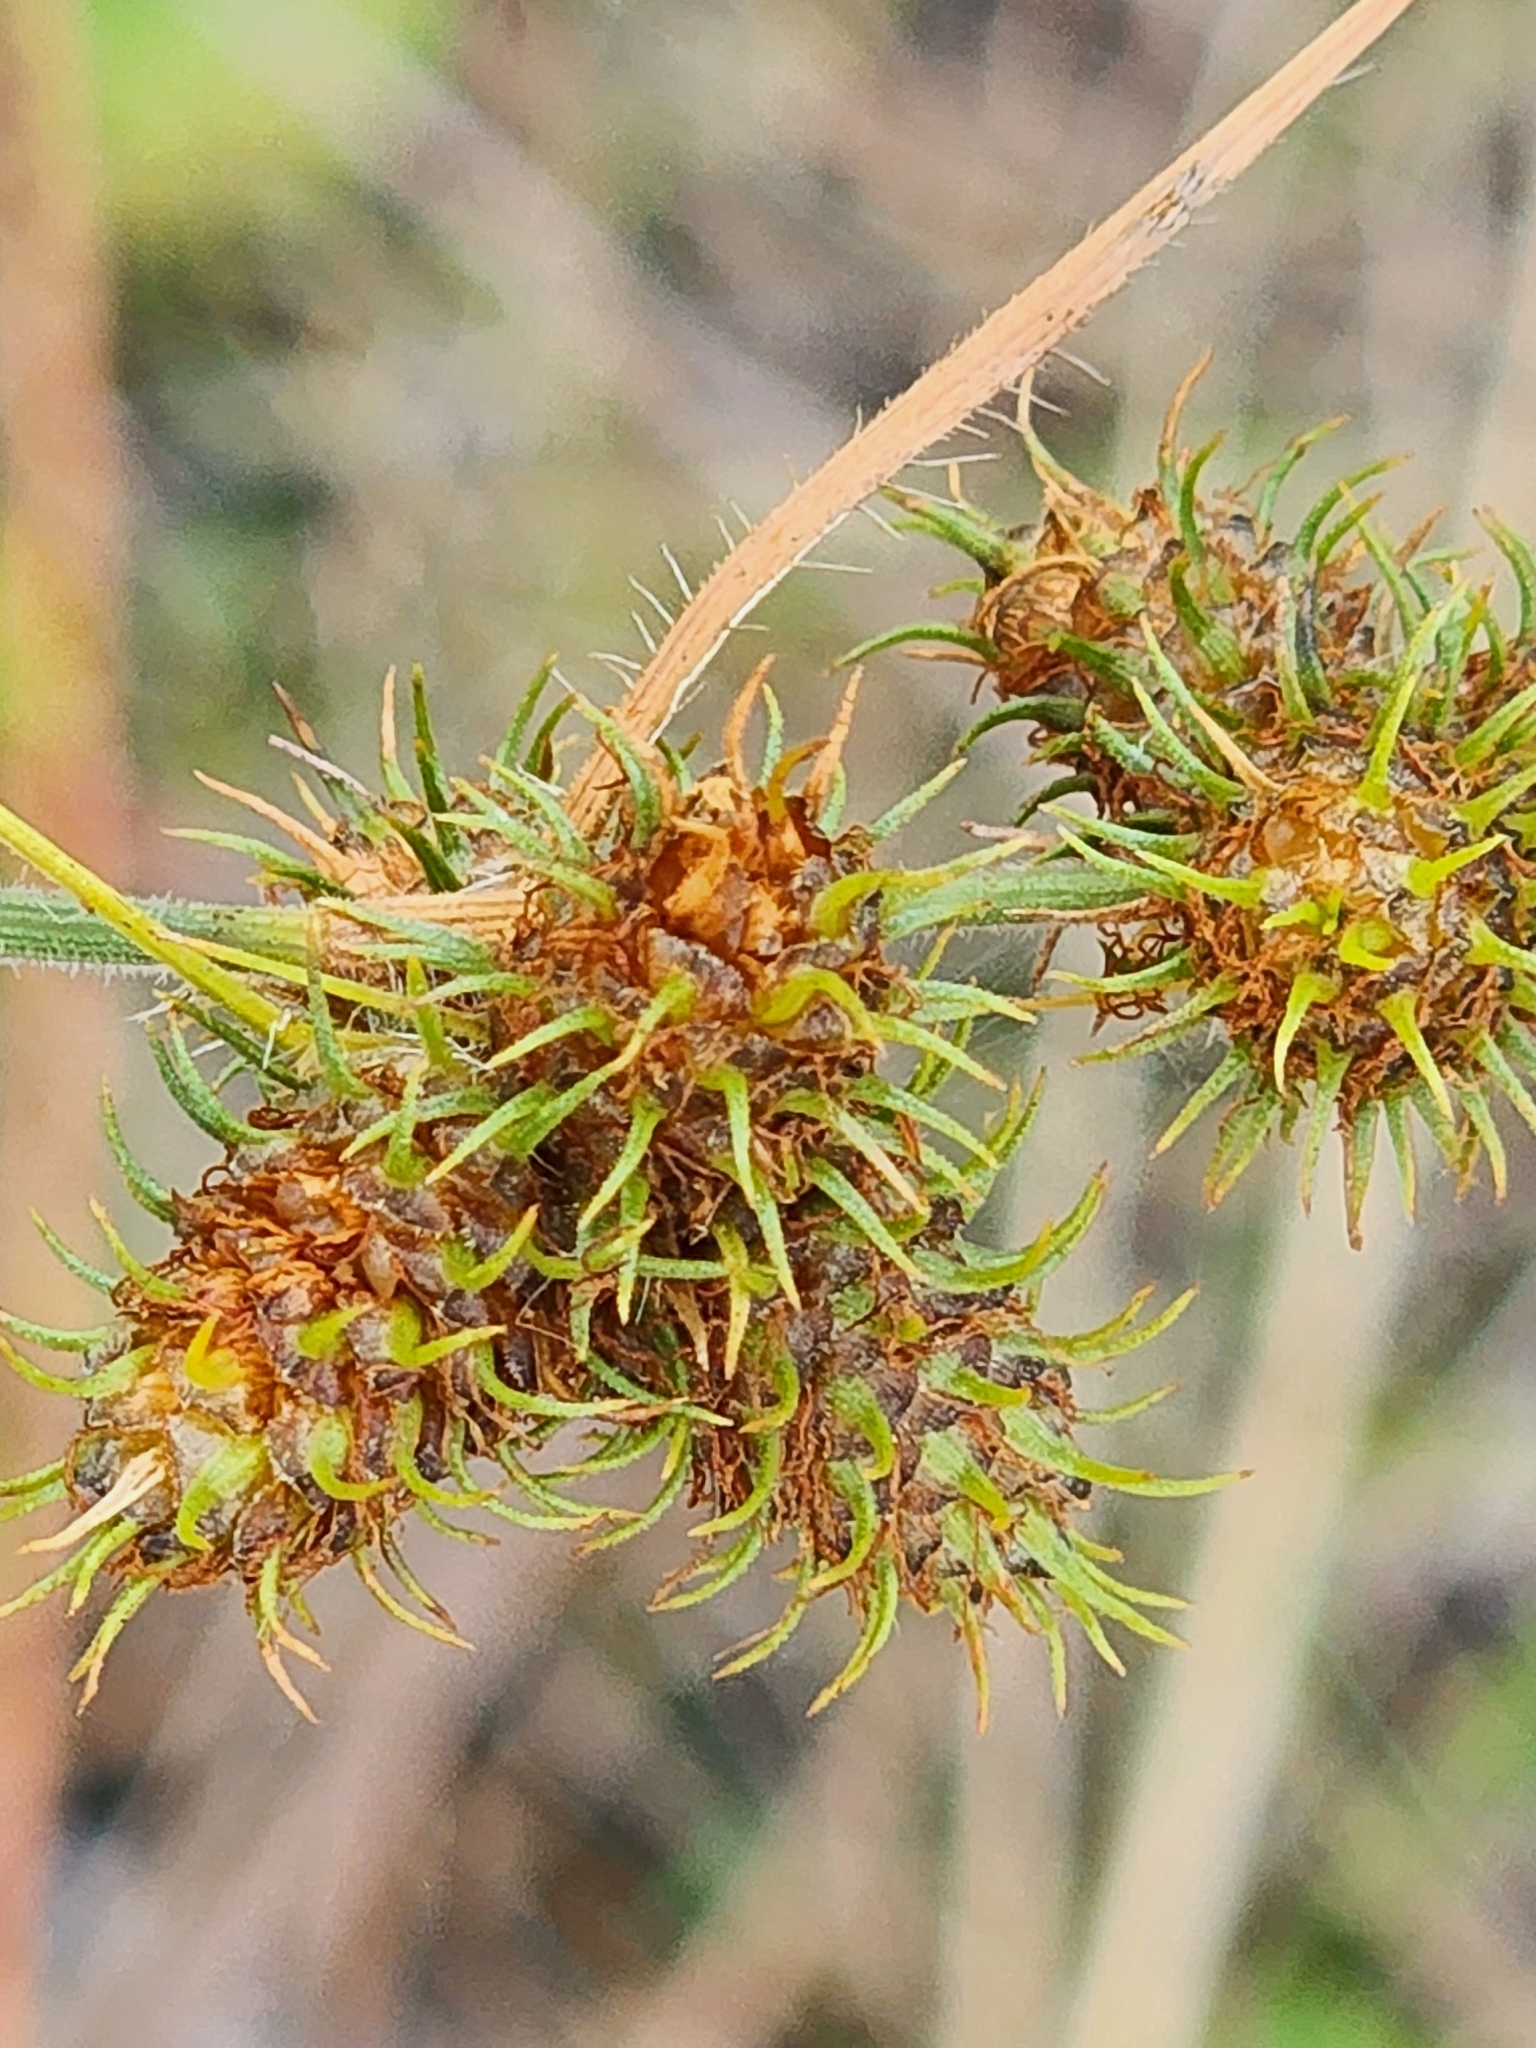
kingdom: Plantae
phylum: Tracheophyta
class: Liliopsida
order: Poales
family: Cyperaceae
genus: Fuirena
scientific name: Fuirena breviseta
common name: Saltmarsh umbrella sedge
